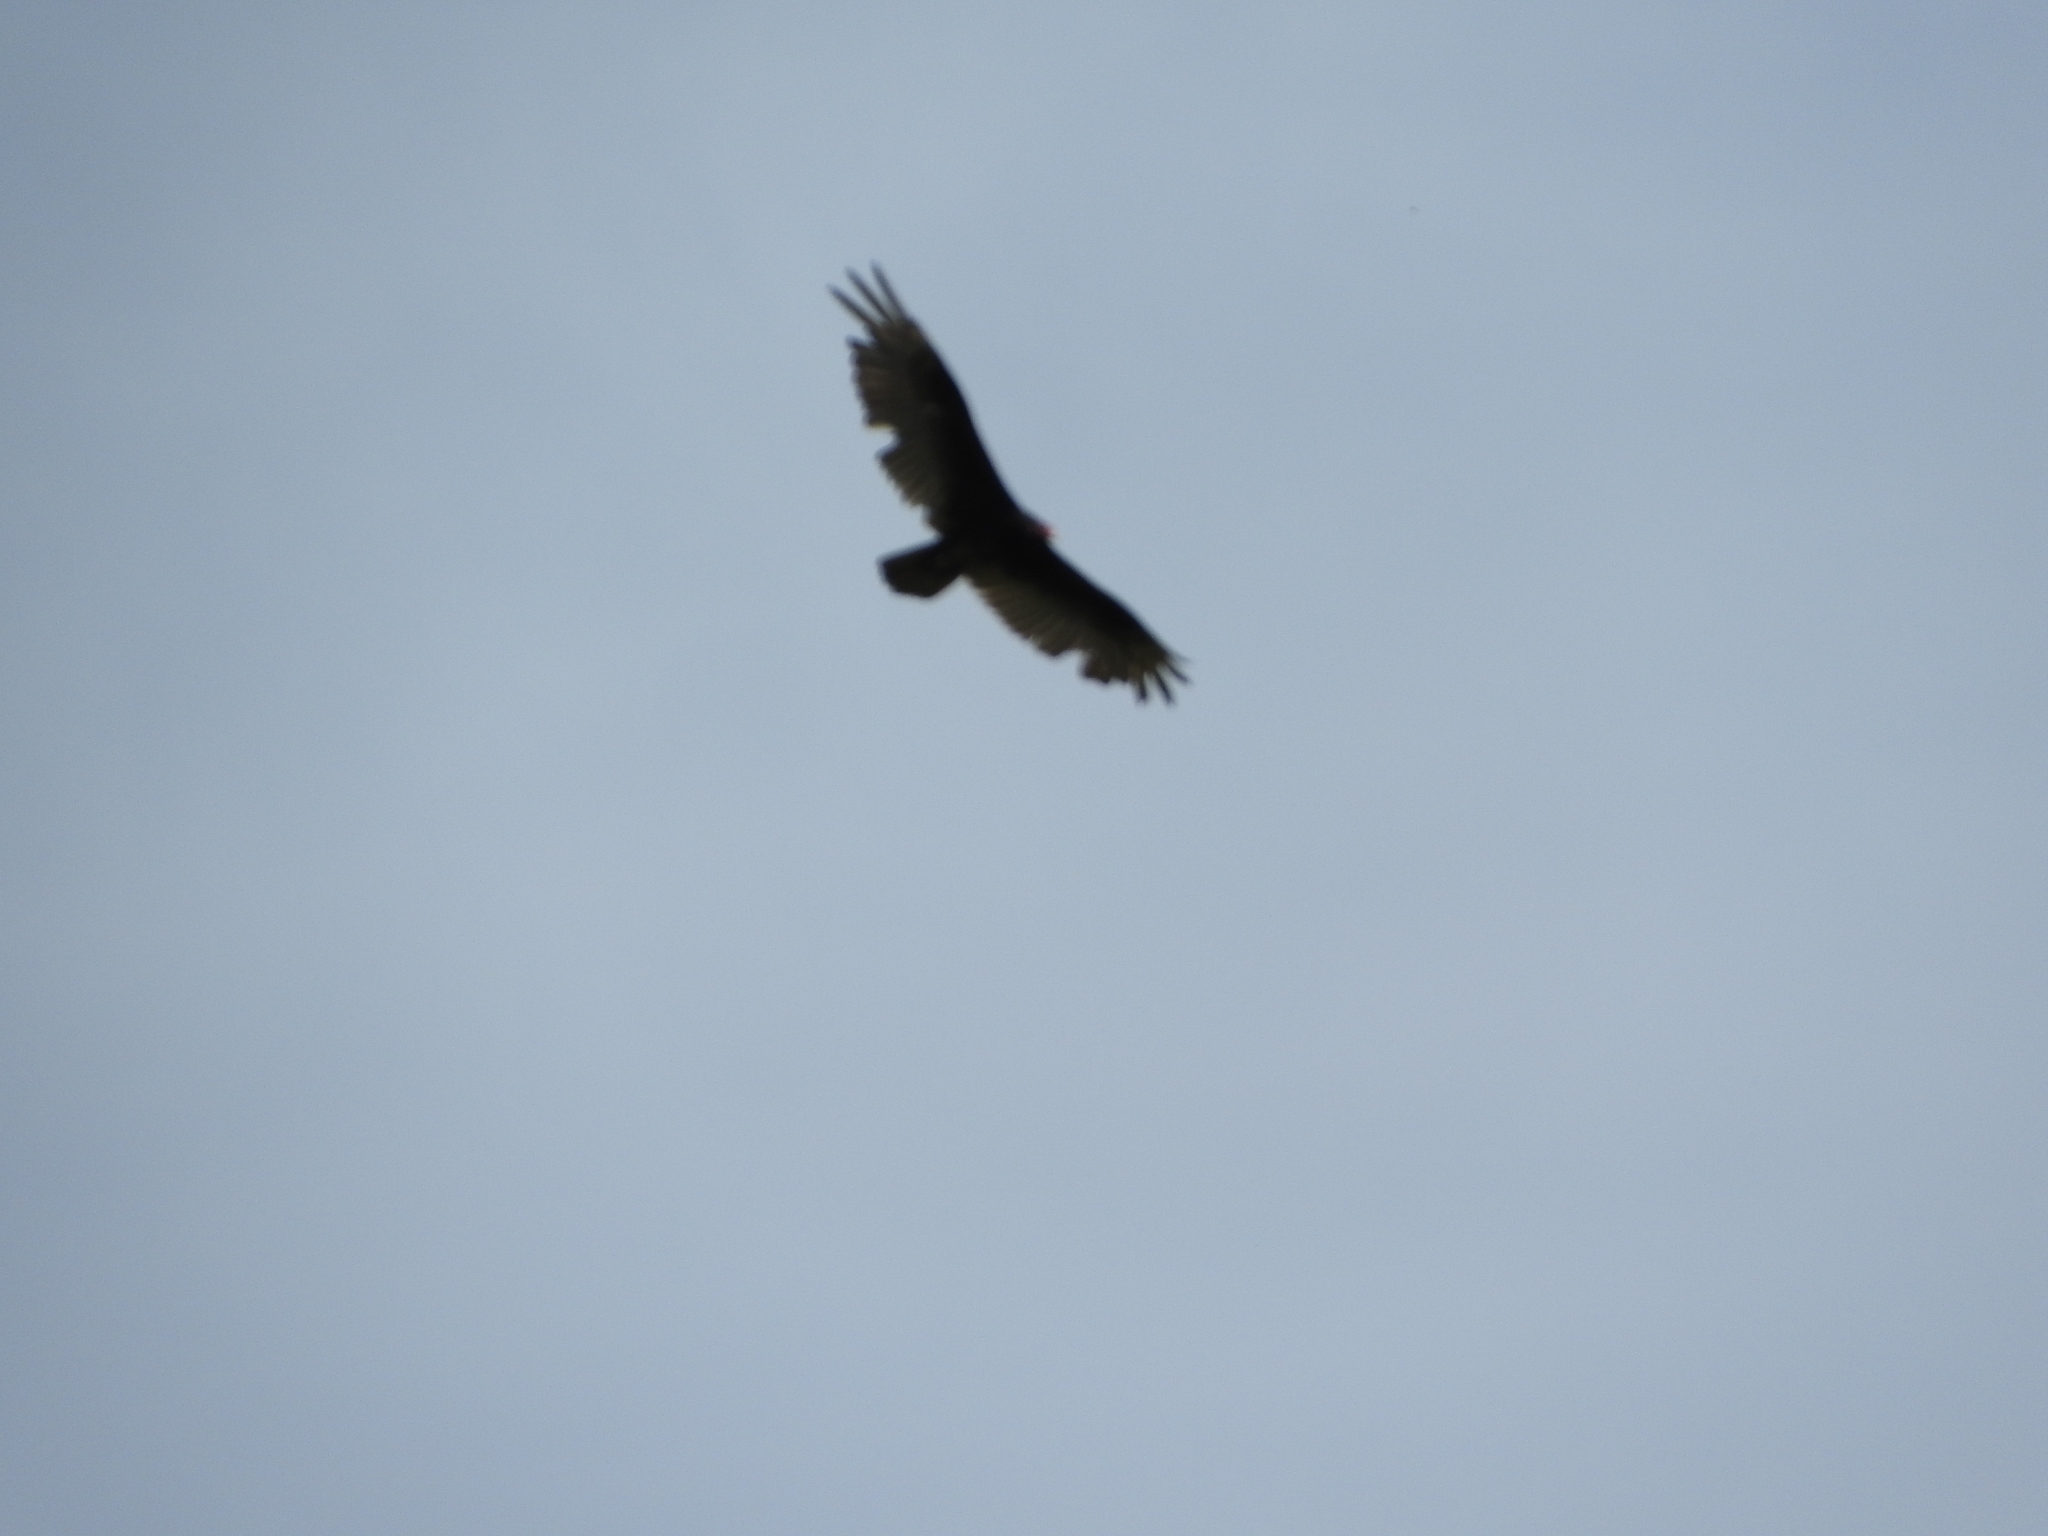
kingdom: Animalia
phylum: Chordata
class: Aves
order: Accipitriformes
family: Cathartidae
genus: Cathartes
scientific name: Cathartes aura
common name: Turkey vulture
